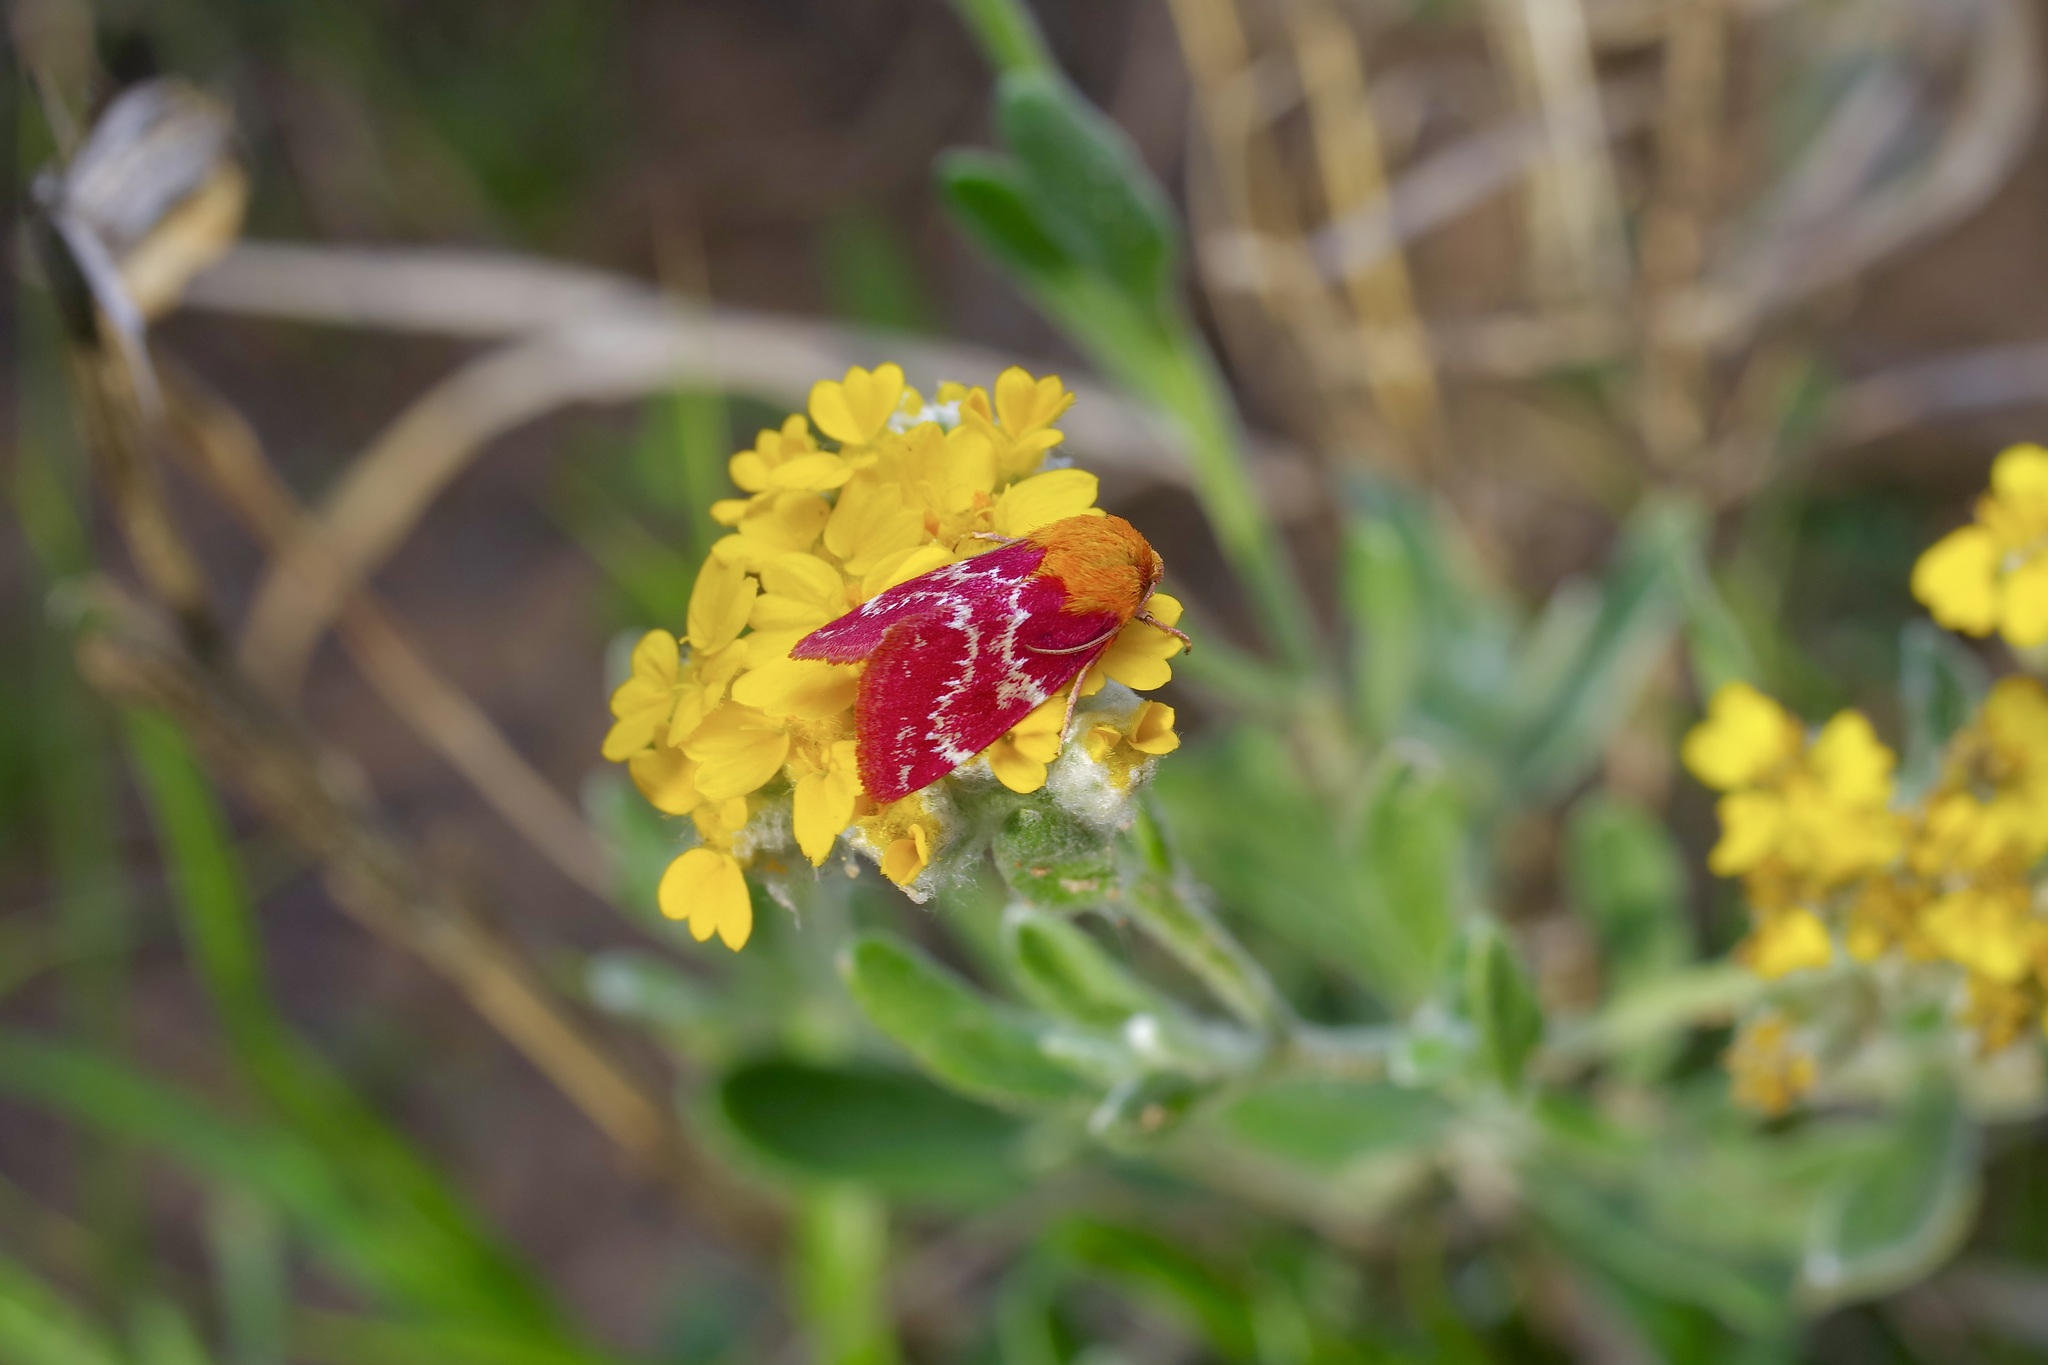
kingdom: Animalia
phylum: Arthropoda
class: Insecta
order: Lepidoptera
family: Noctuidae
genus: Schinia
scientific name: Schinia volupia
